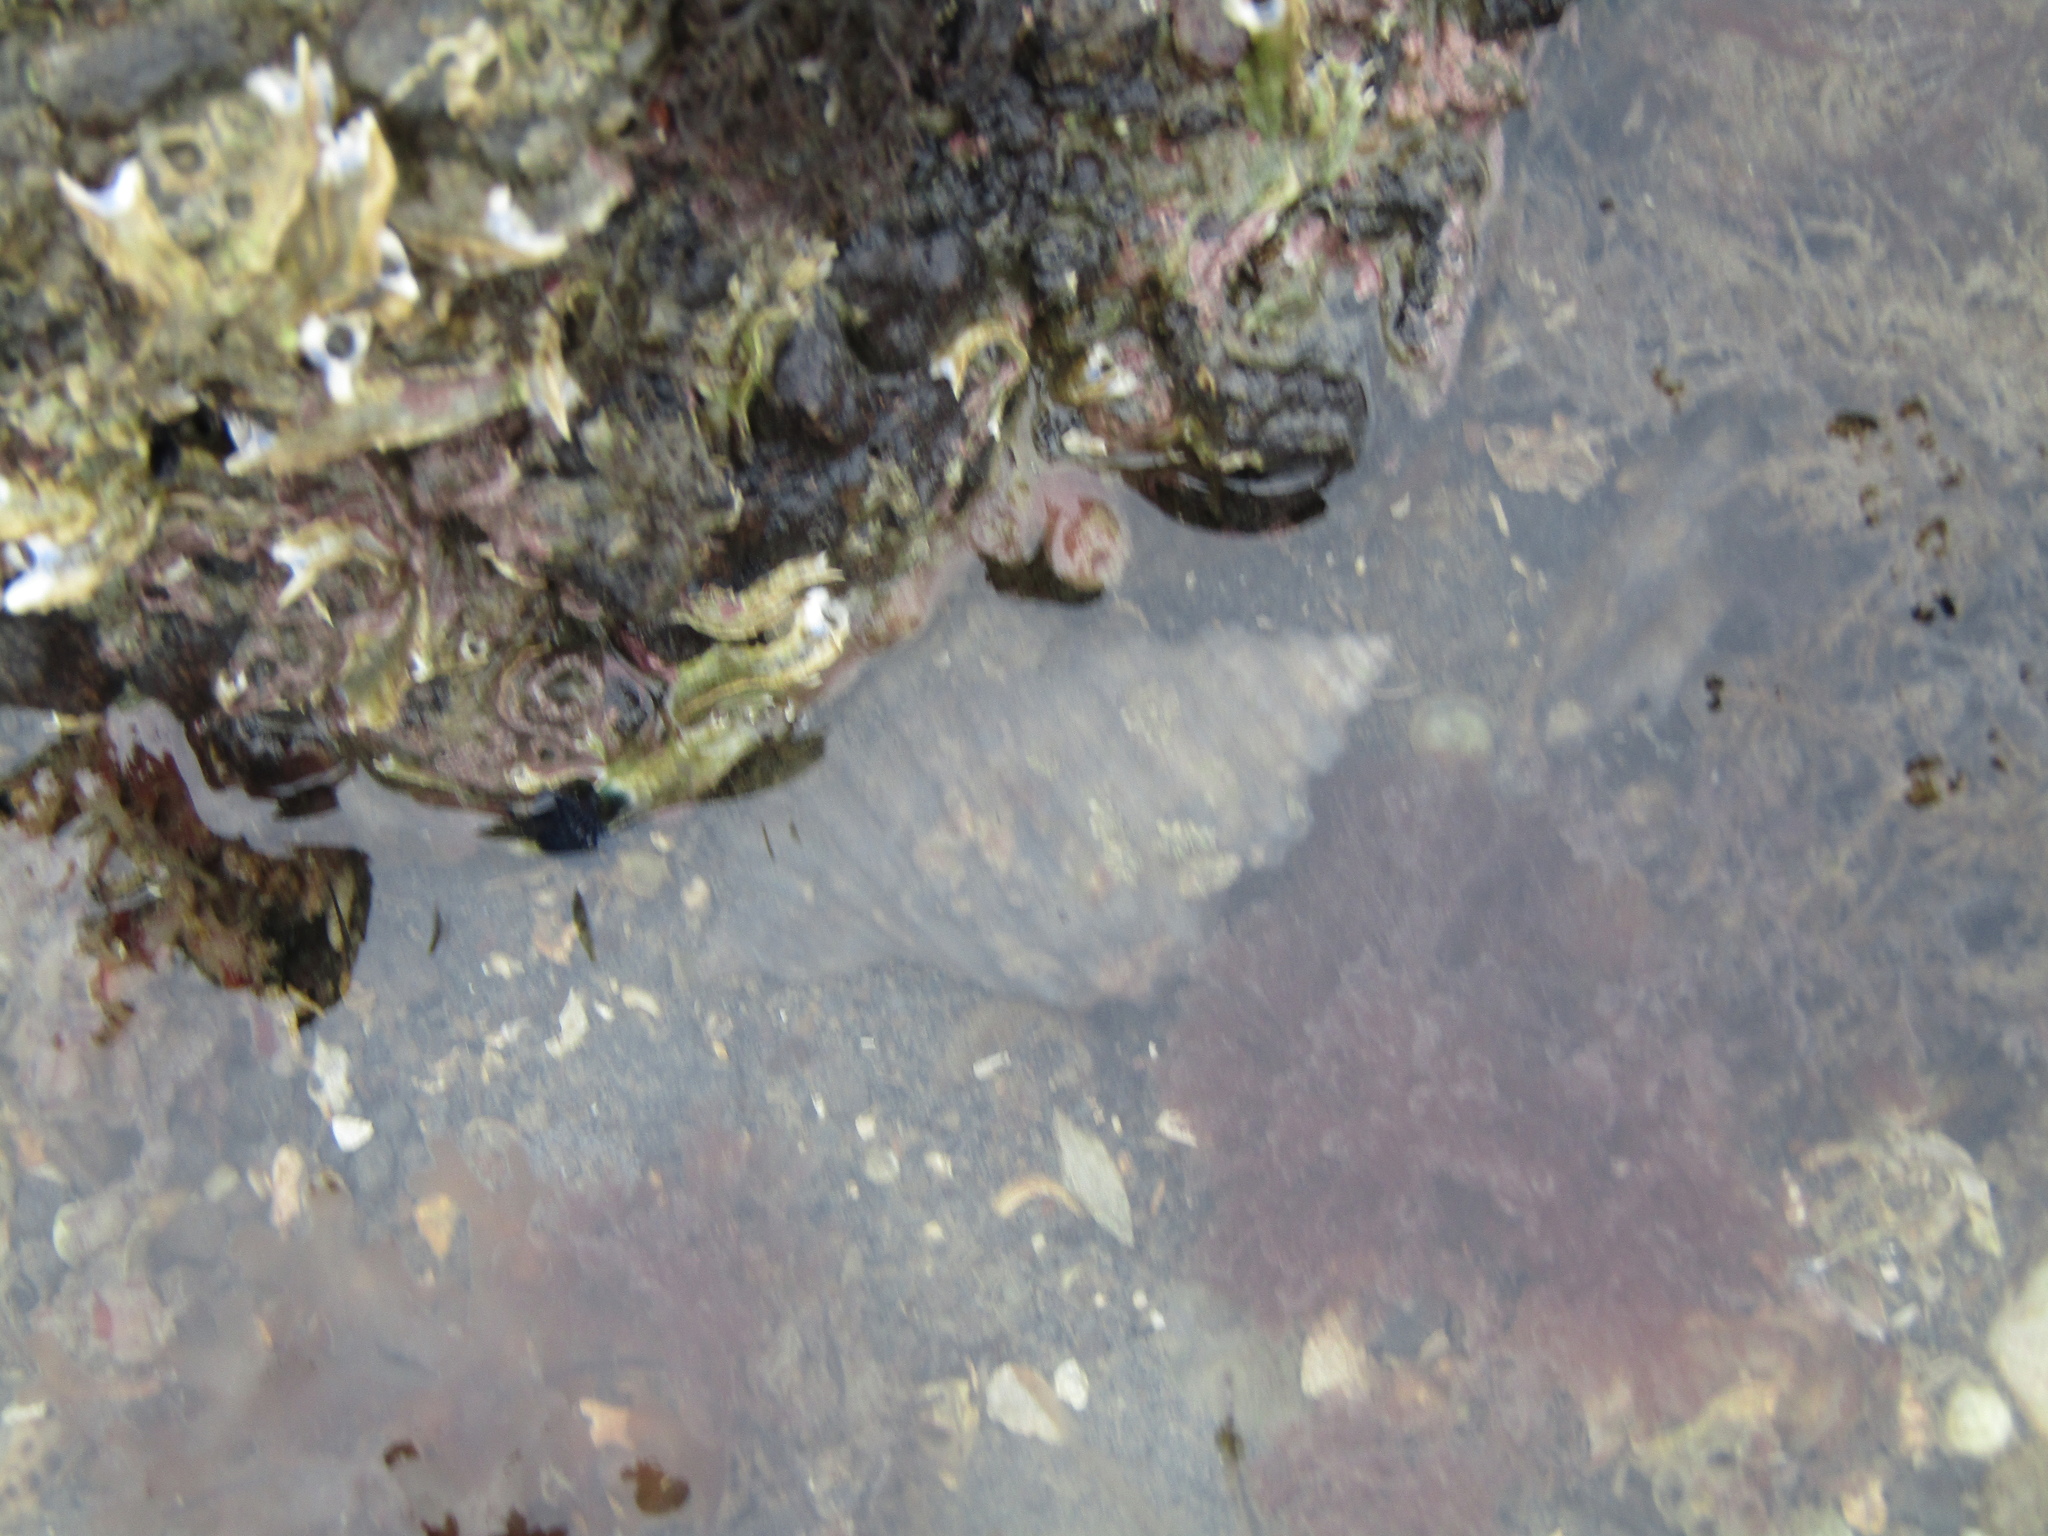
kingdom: Animalia
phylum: Mollusca
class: Gastropoda
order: Littorinimorpha
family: Cymatiidae
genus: Monoplex
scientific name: Monoplex parthenopeus
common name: Giant triton
